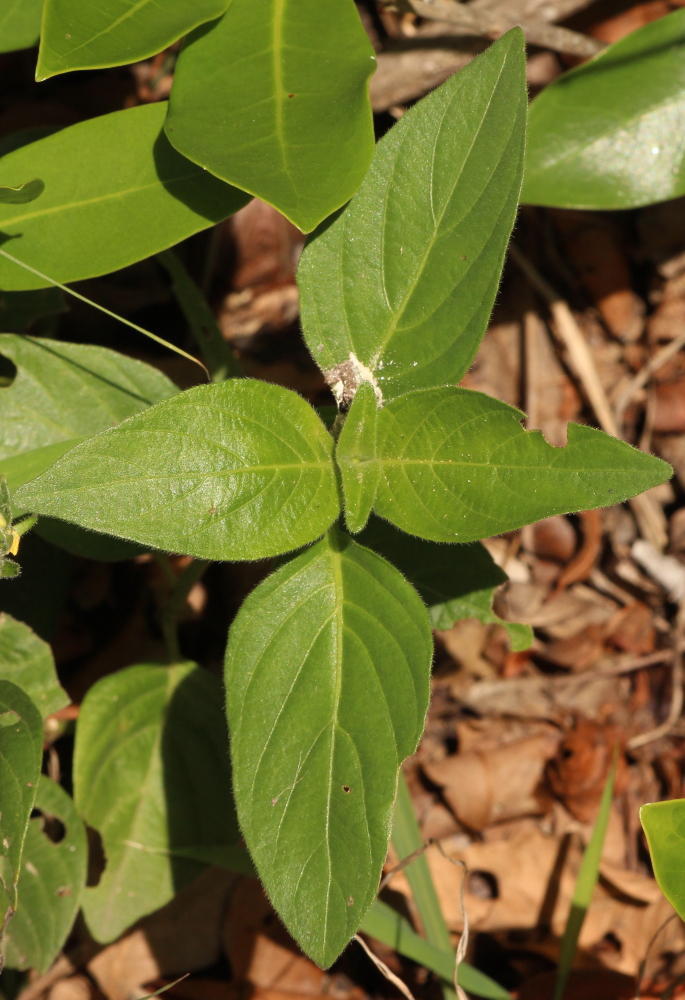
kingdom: Plantae
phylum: Tracheophyta
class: Magnoliopsida
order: Lamiales
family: Acanthaceae
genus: Justicia
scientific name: Justicia flava
